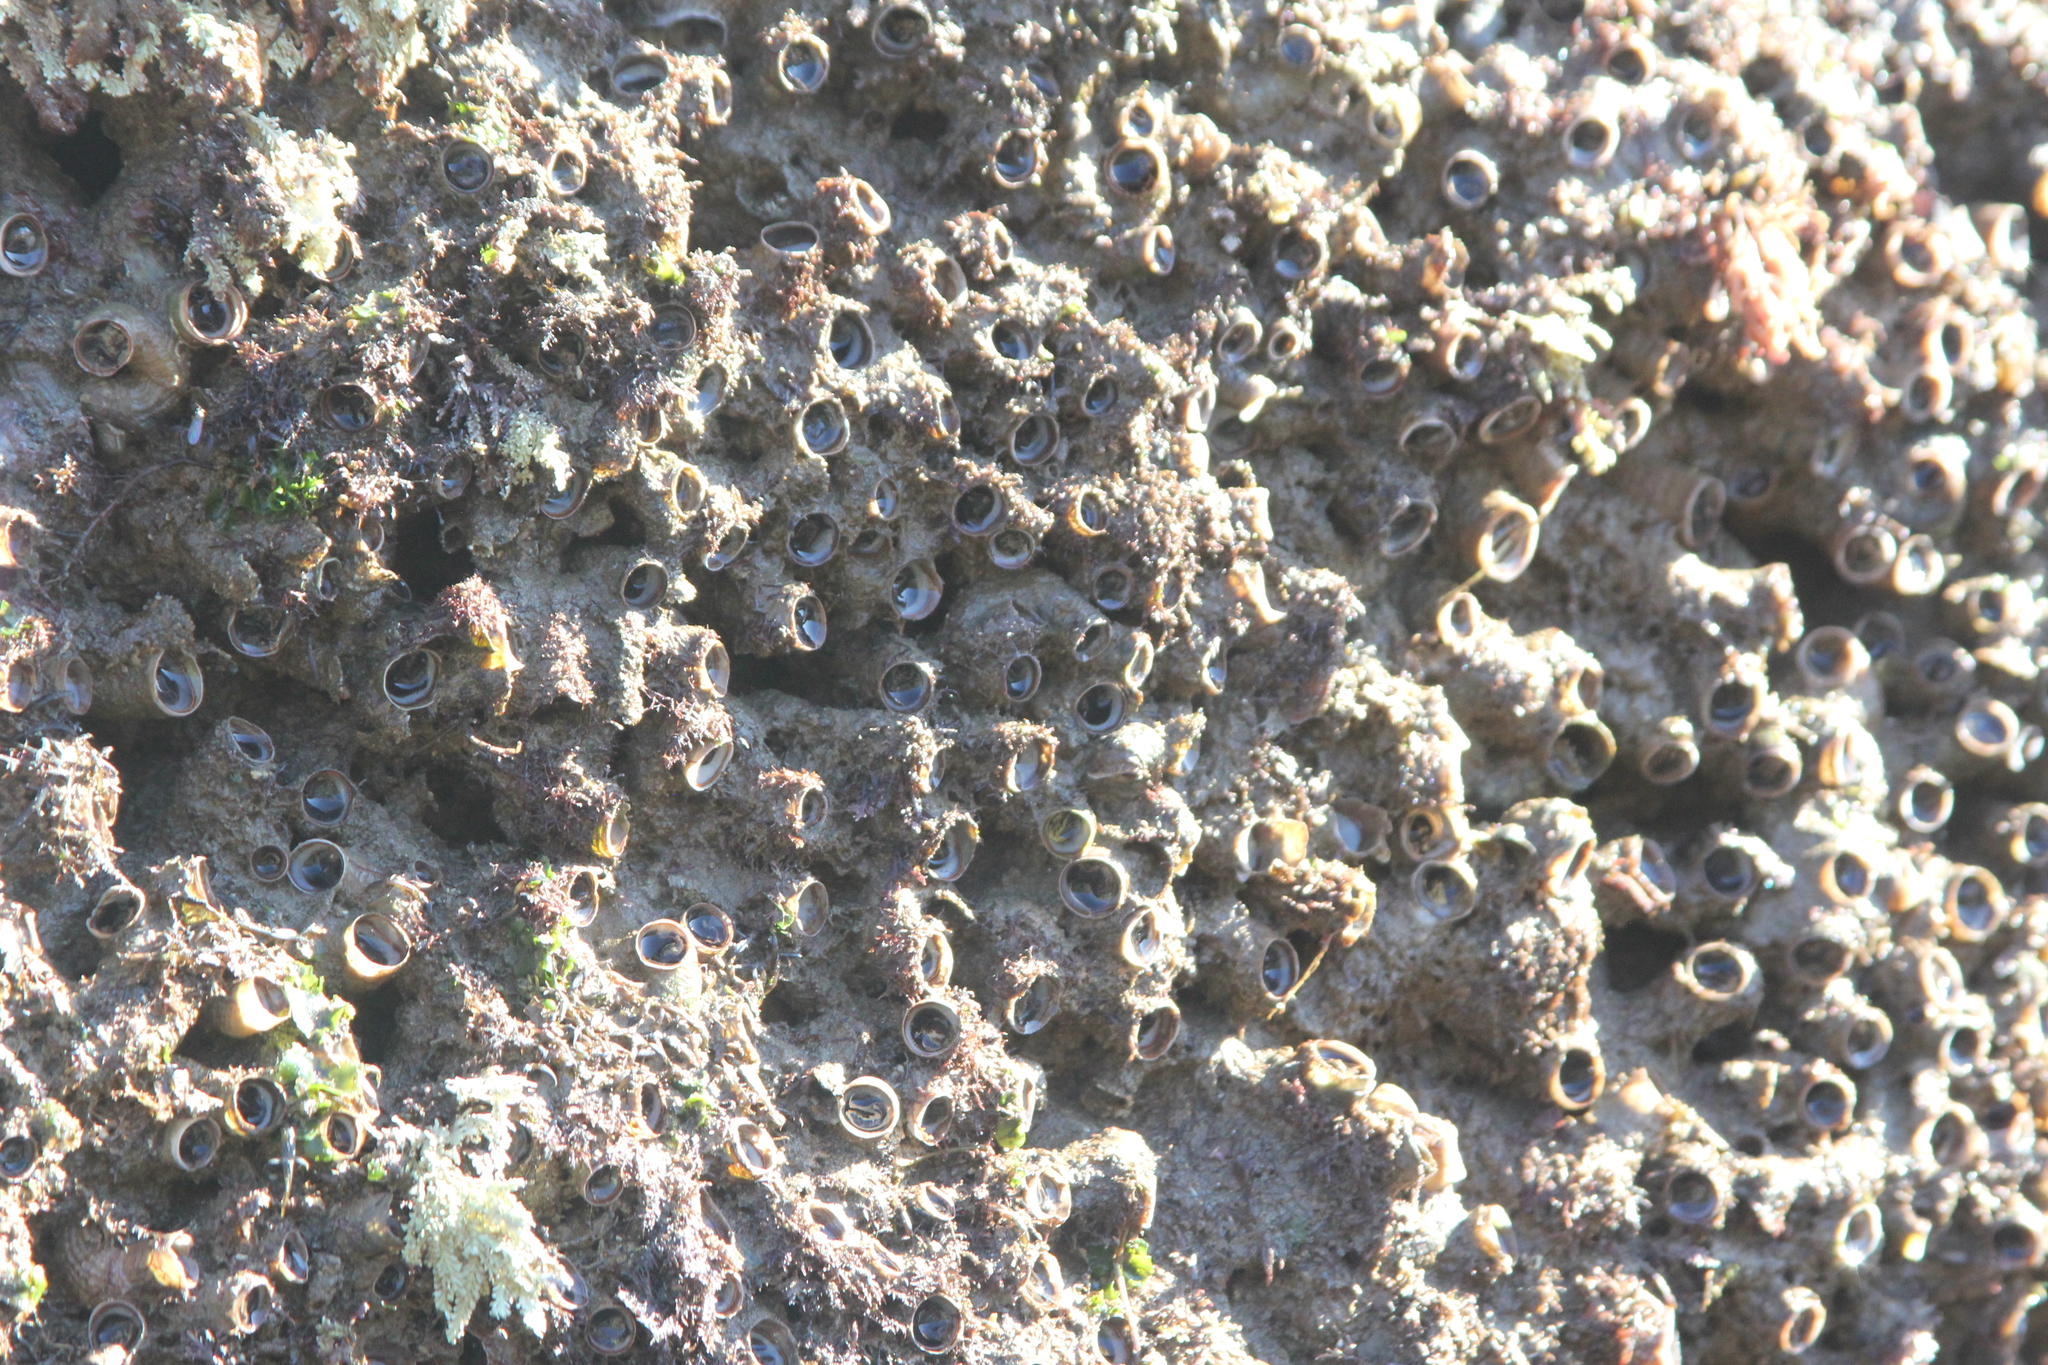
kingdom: Animalia
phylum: Mollusca
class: Gastropoda
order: Littorinimorpha
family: Vermetidae
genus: Thylacodes
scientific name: Thylacodes squamigerus
